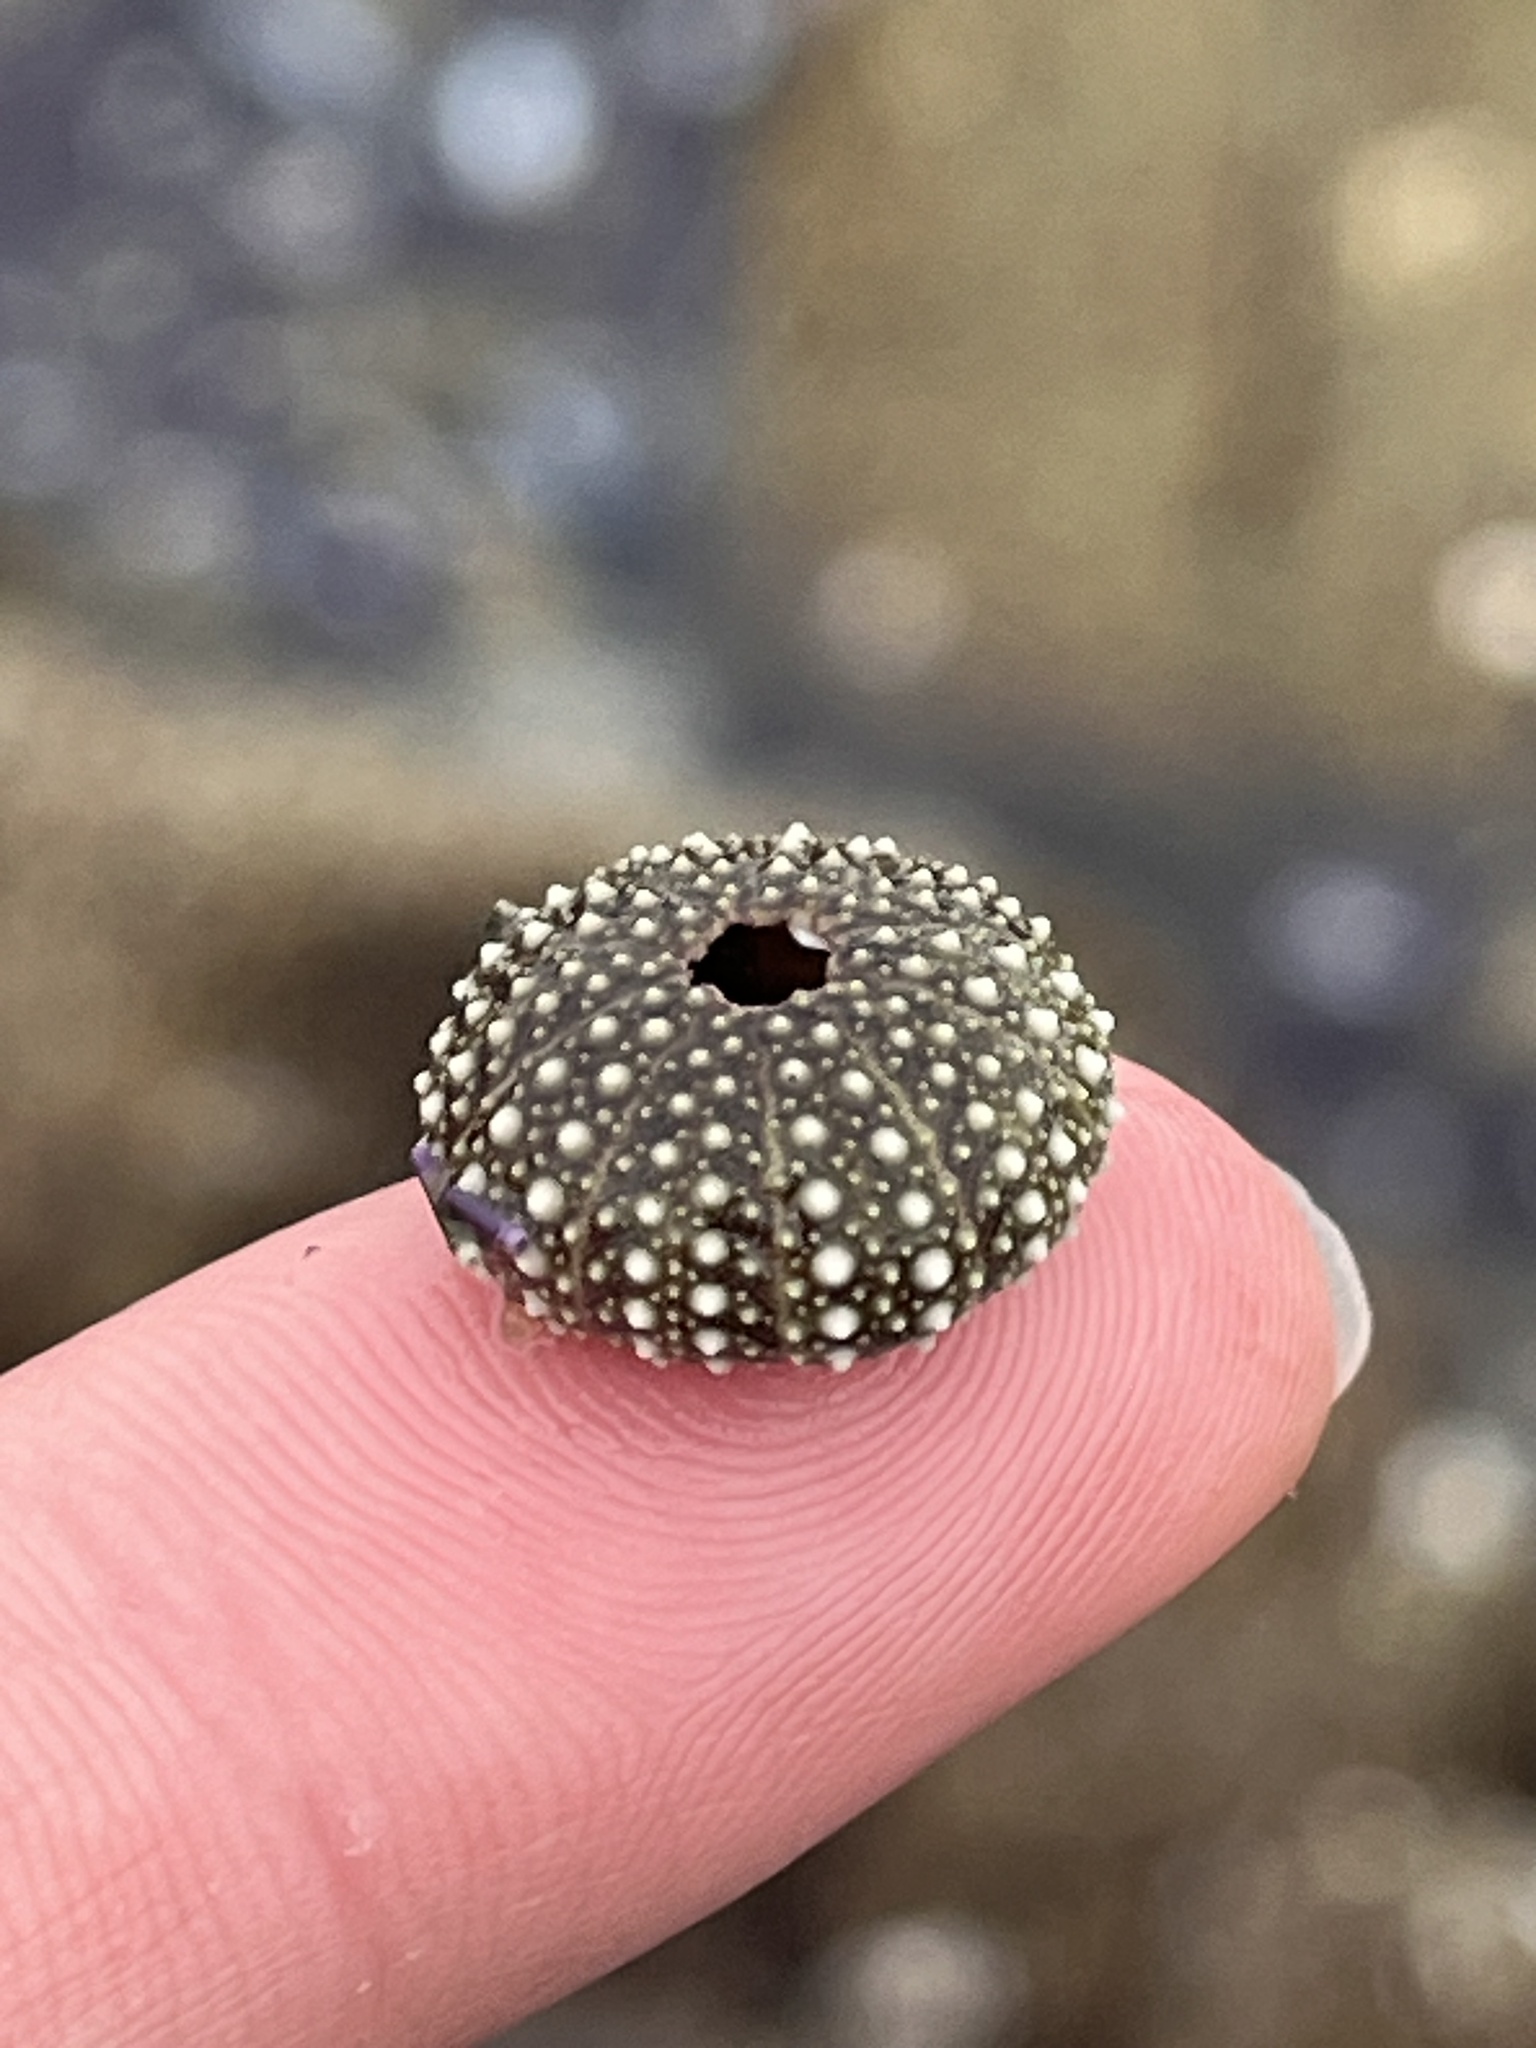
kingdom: Animalia
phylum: Echinodermata
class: Echinoidea
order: Camarodonta
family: Strongylocentrotidae
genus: Strongylocentrotus
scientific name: Strongylocentrotus purpuratus
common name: Purple sea urchin
